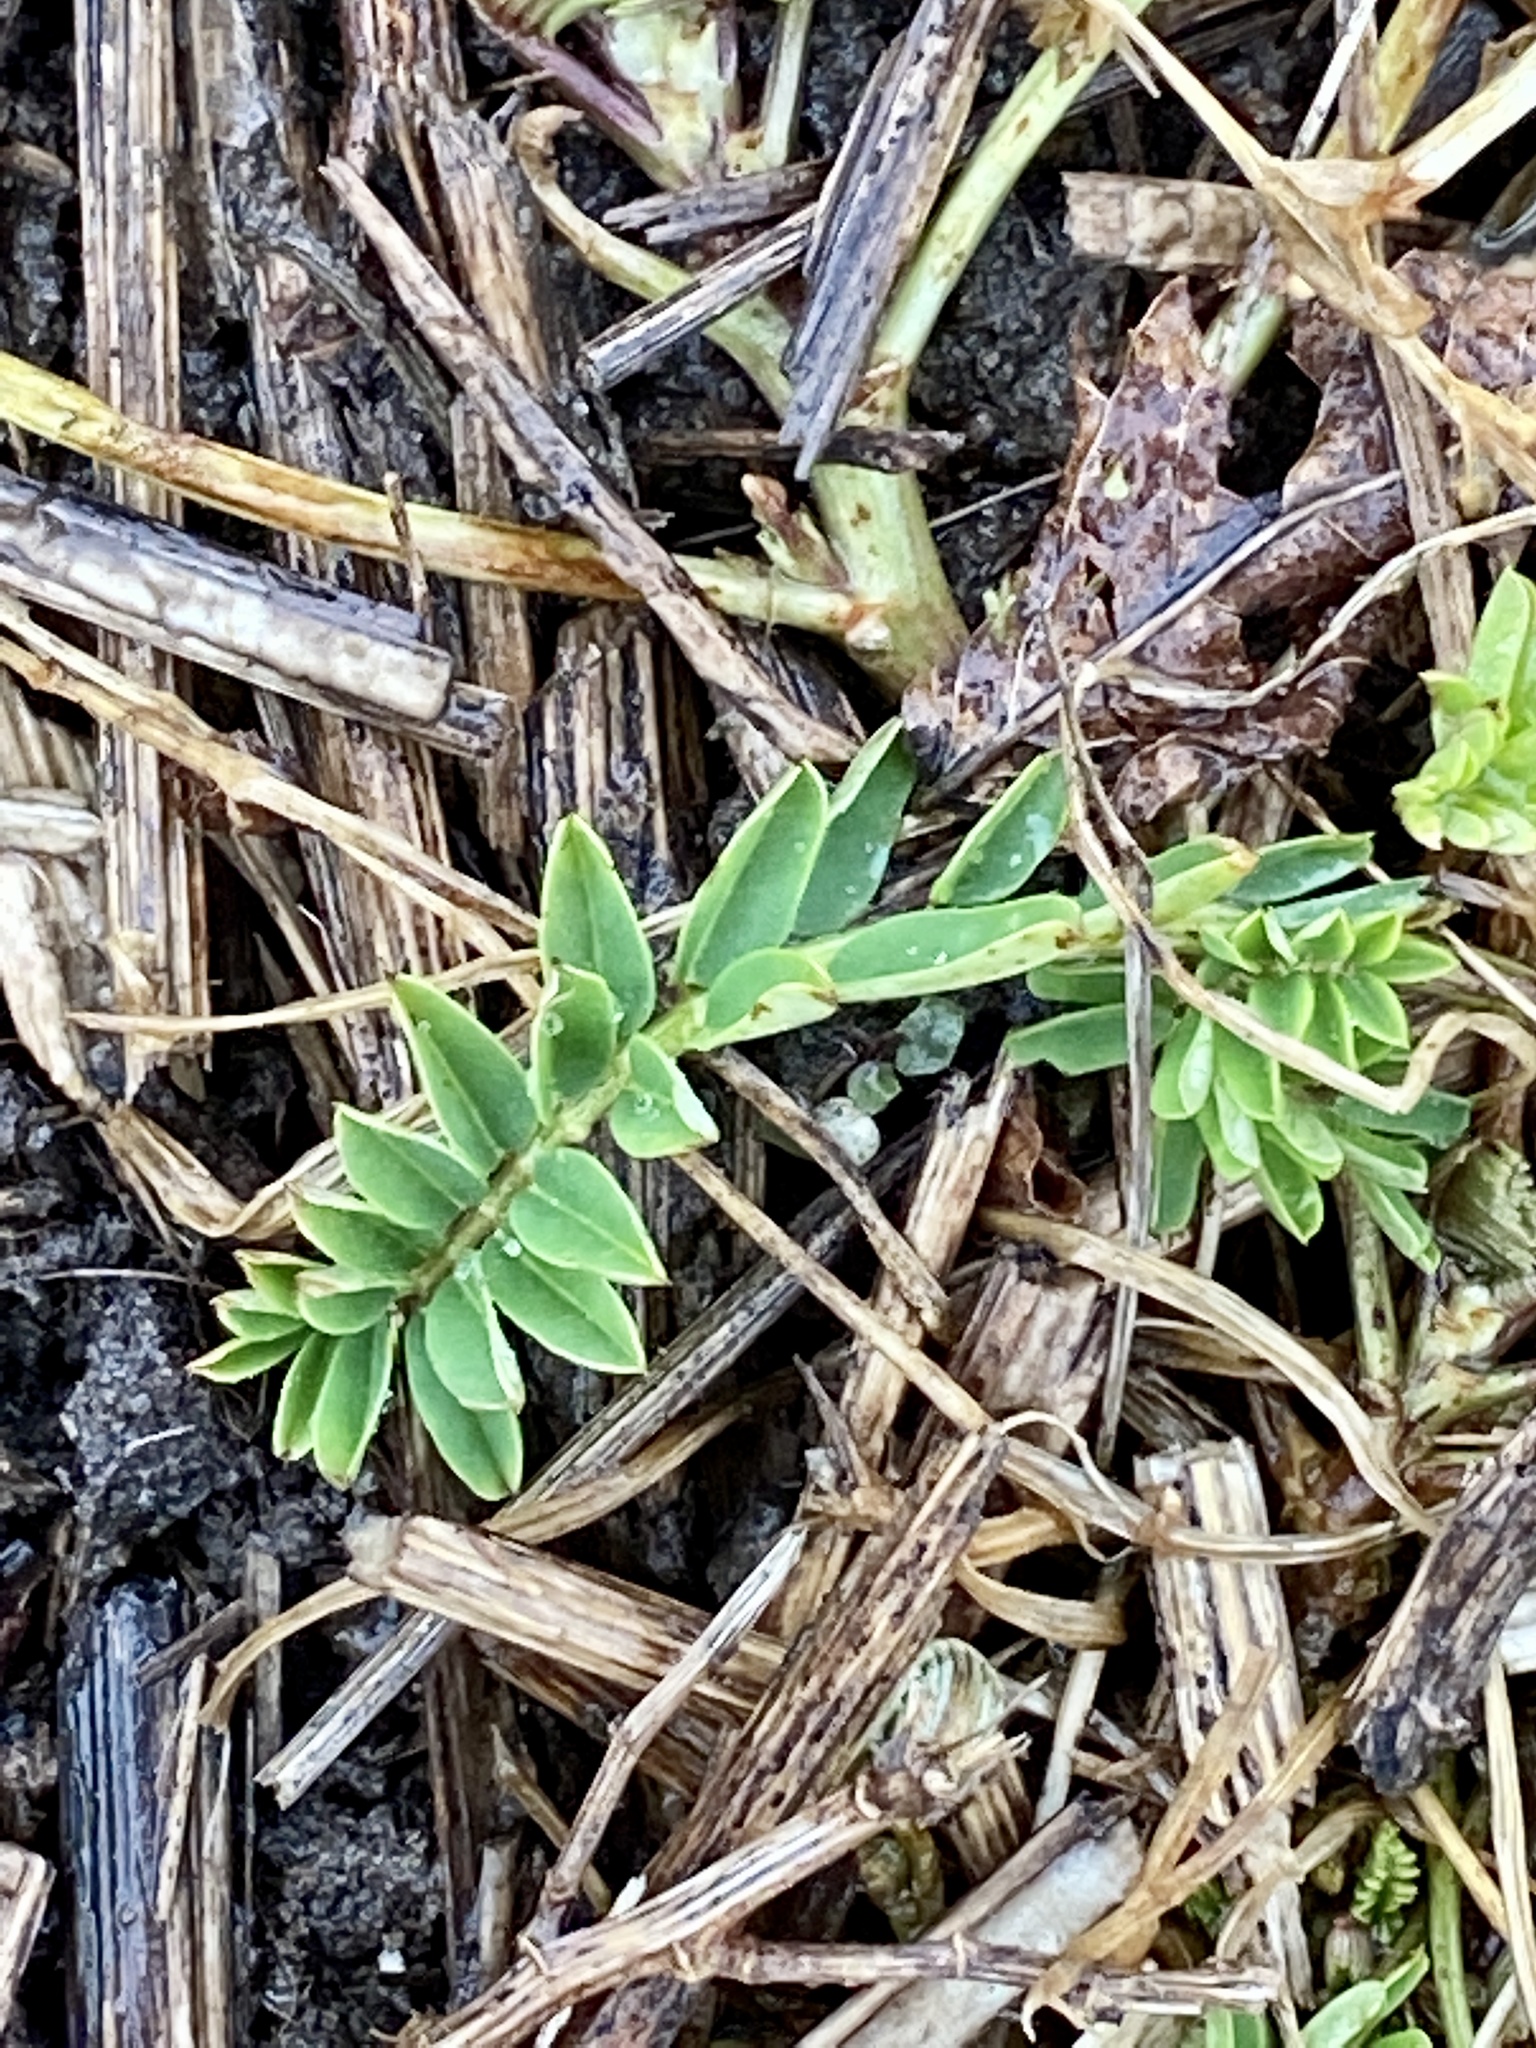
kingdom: Plantae
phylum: Tracheophyta
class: Magnoliopsida
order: Fabales
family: Fabaceae
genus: Coronilla
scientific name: Coronilla varia
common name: Crownvetch
